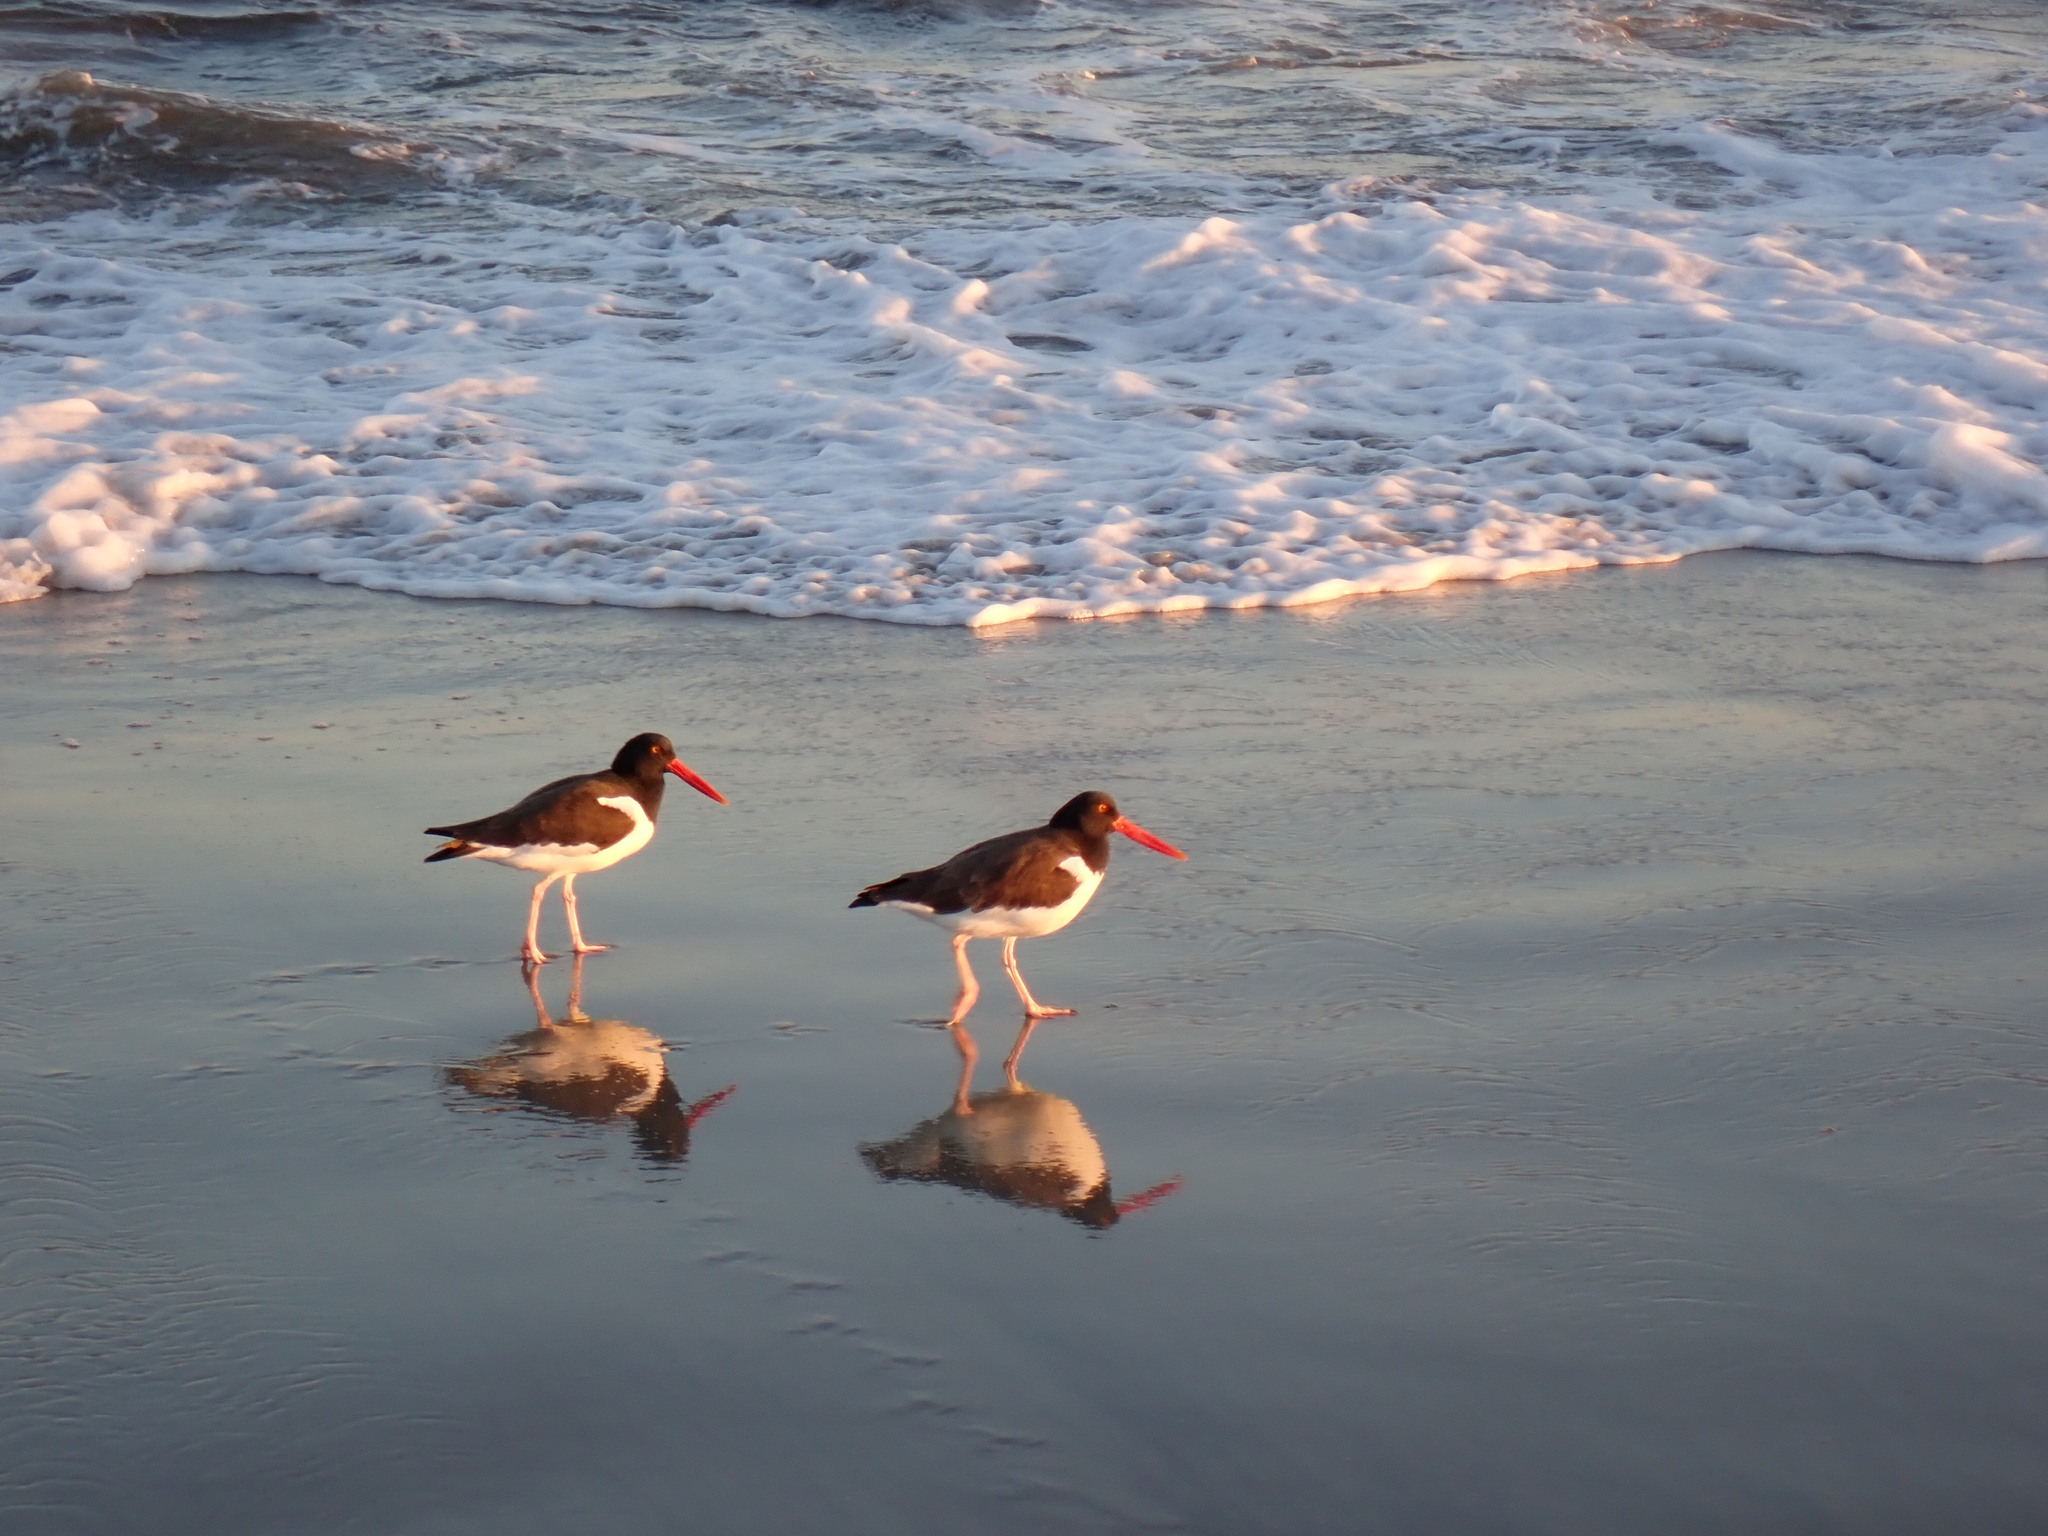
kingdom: Animalia
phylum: Chordata
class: Aves
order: Charadriiformes
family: Haematopodidae
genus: Haematopus
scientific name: Haematopus palliatus
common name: American oystercatcher
